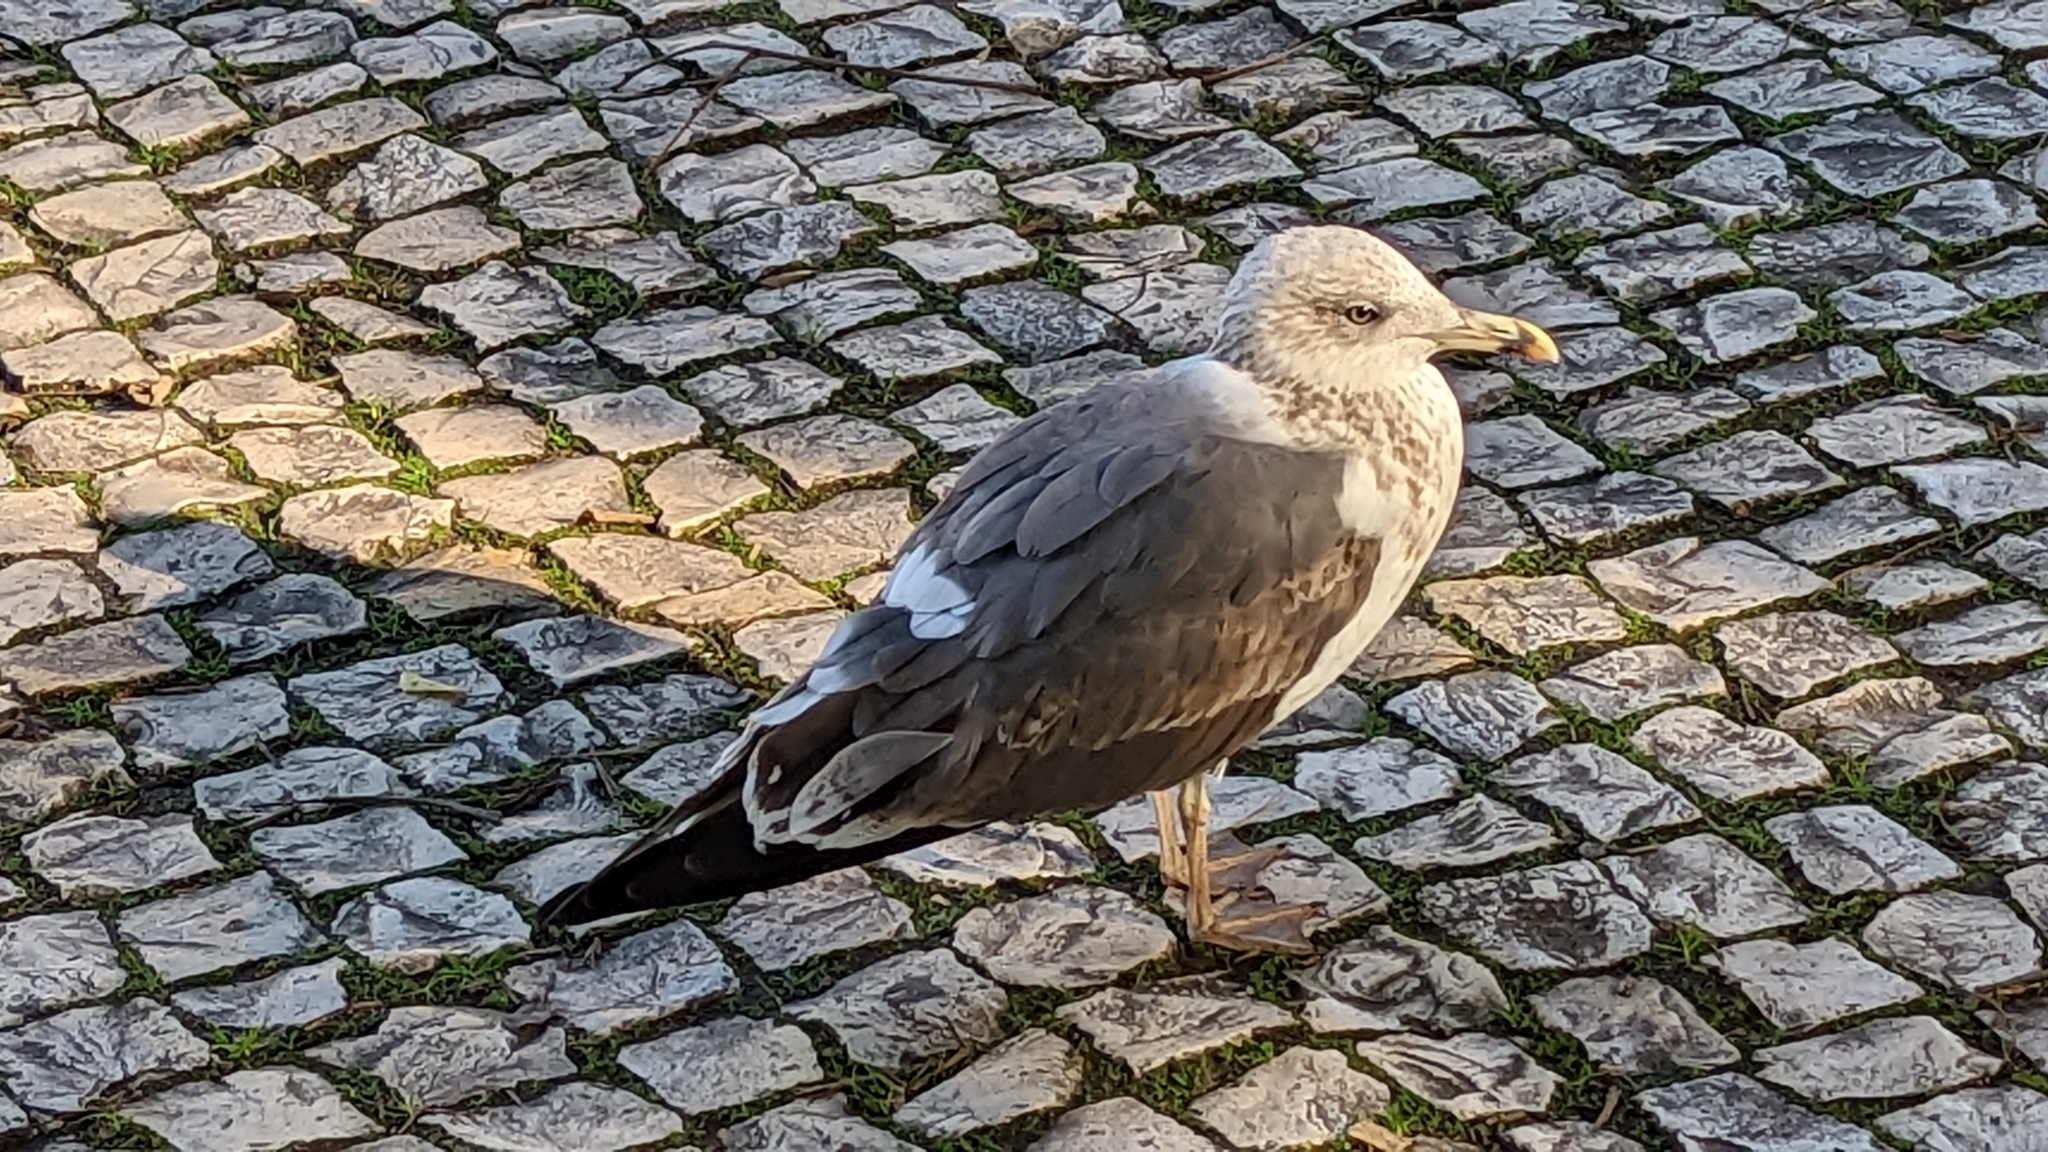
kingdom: Animalia
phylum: Chordata
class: Aves
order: Charadriiformes
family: Laridae
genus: Larus
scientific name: Larus fuscus
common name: Lesser black-backed gull
